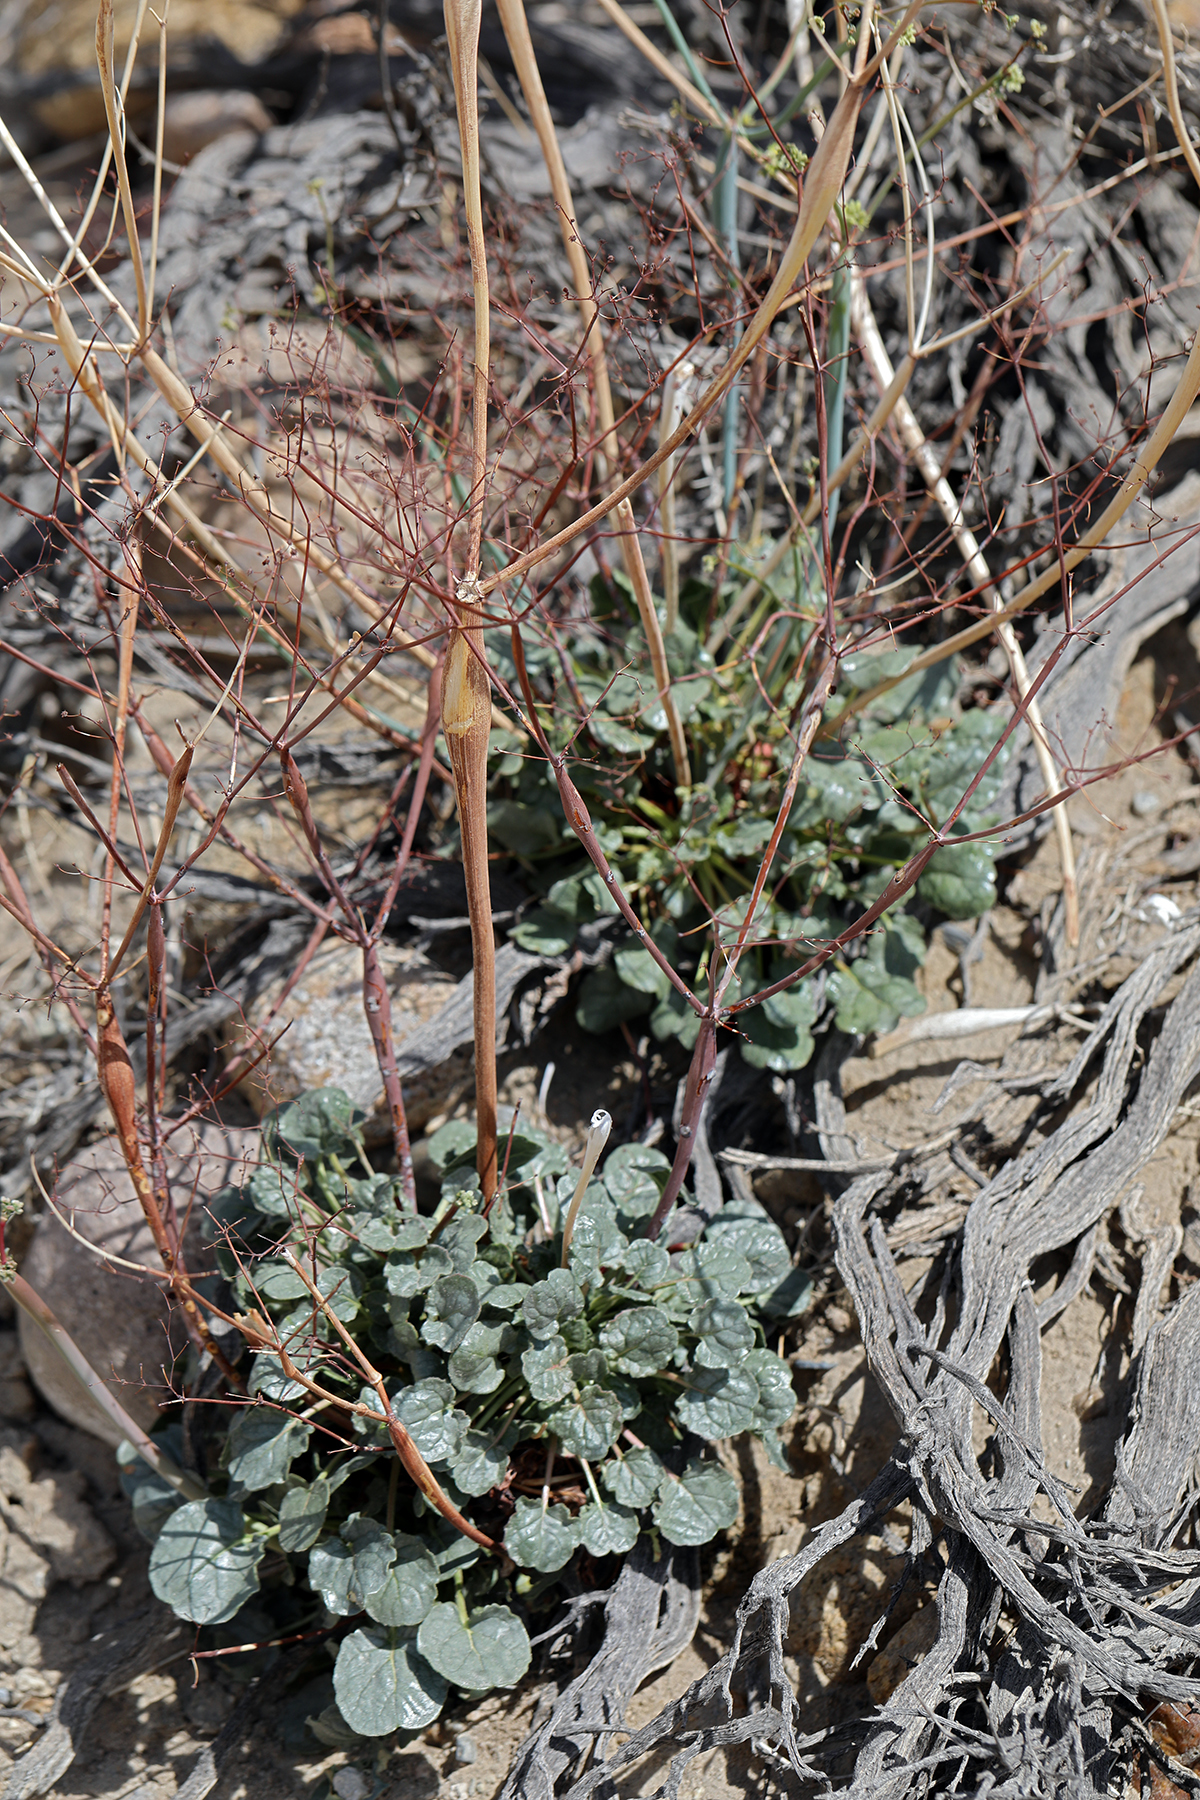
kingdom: Plantae
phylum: Tracheophyta
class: Magnoliopsida
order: Caryophyllales
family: Polygonaceae
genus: Eriogonum
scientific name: Eriogonum inflatum
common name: Desert trumpet
